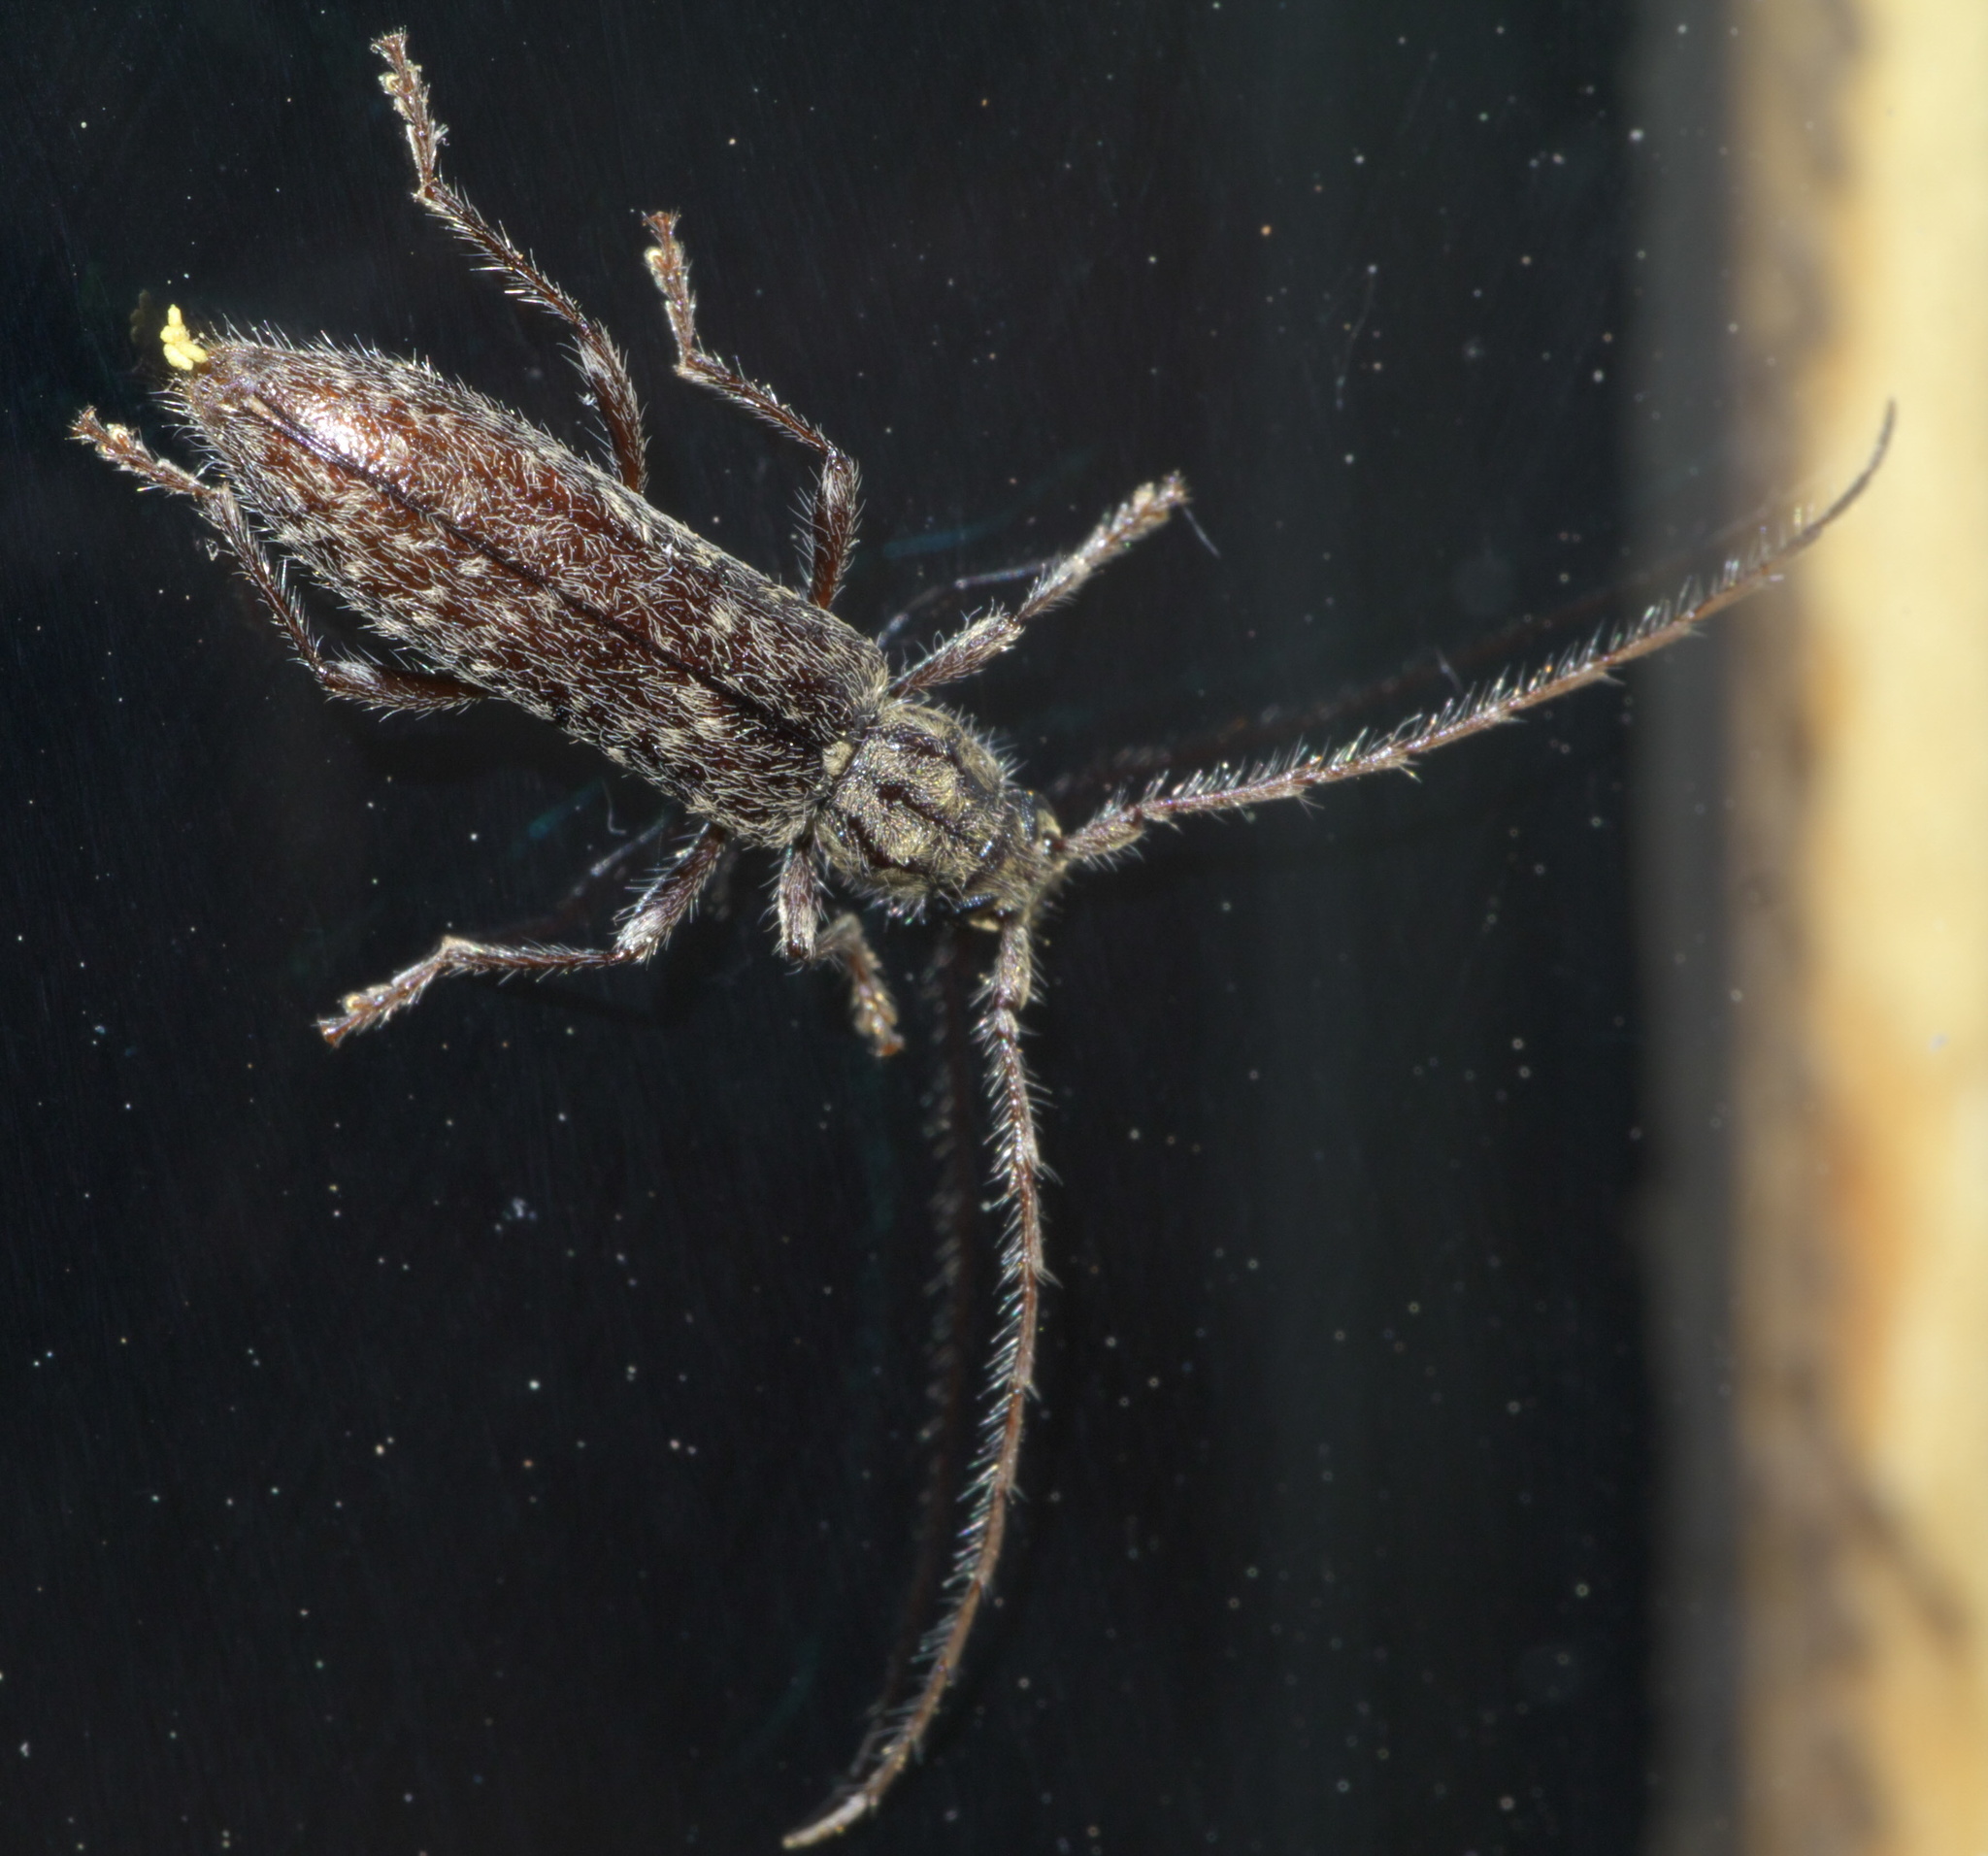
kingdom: Animalia
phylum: Arthropoda
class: Insecta
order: Coleoptera
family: Cerambycidae
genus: Anelaphus
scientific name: Anelaphus pumilus
